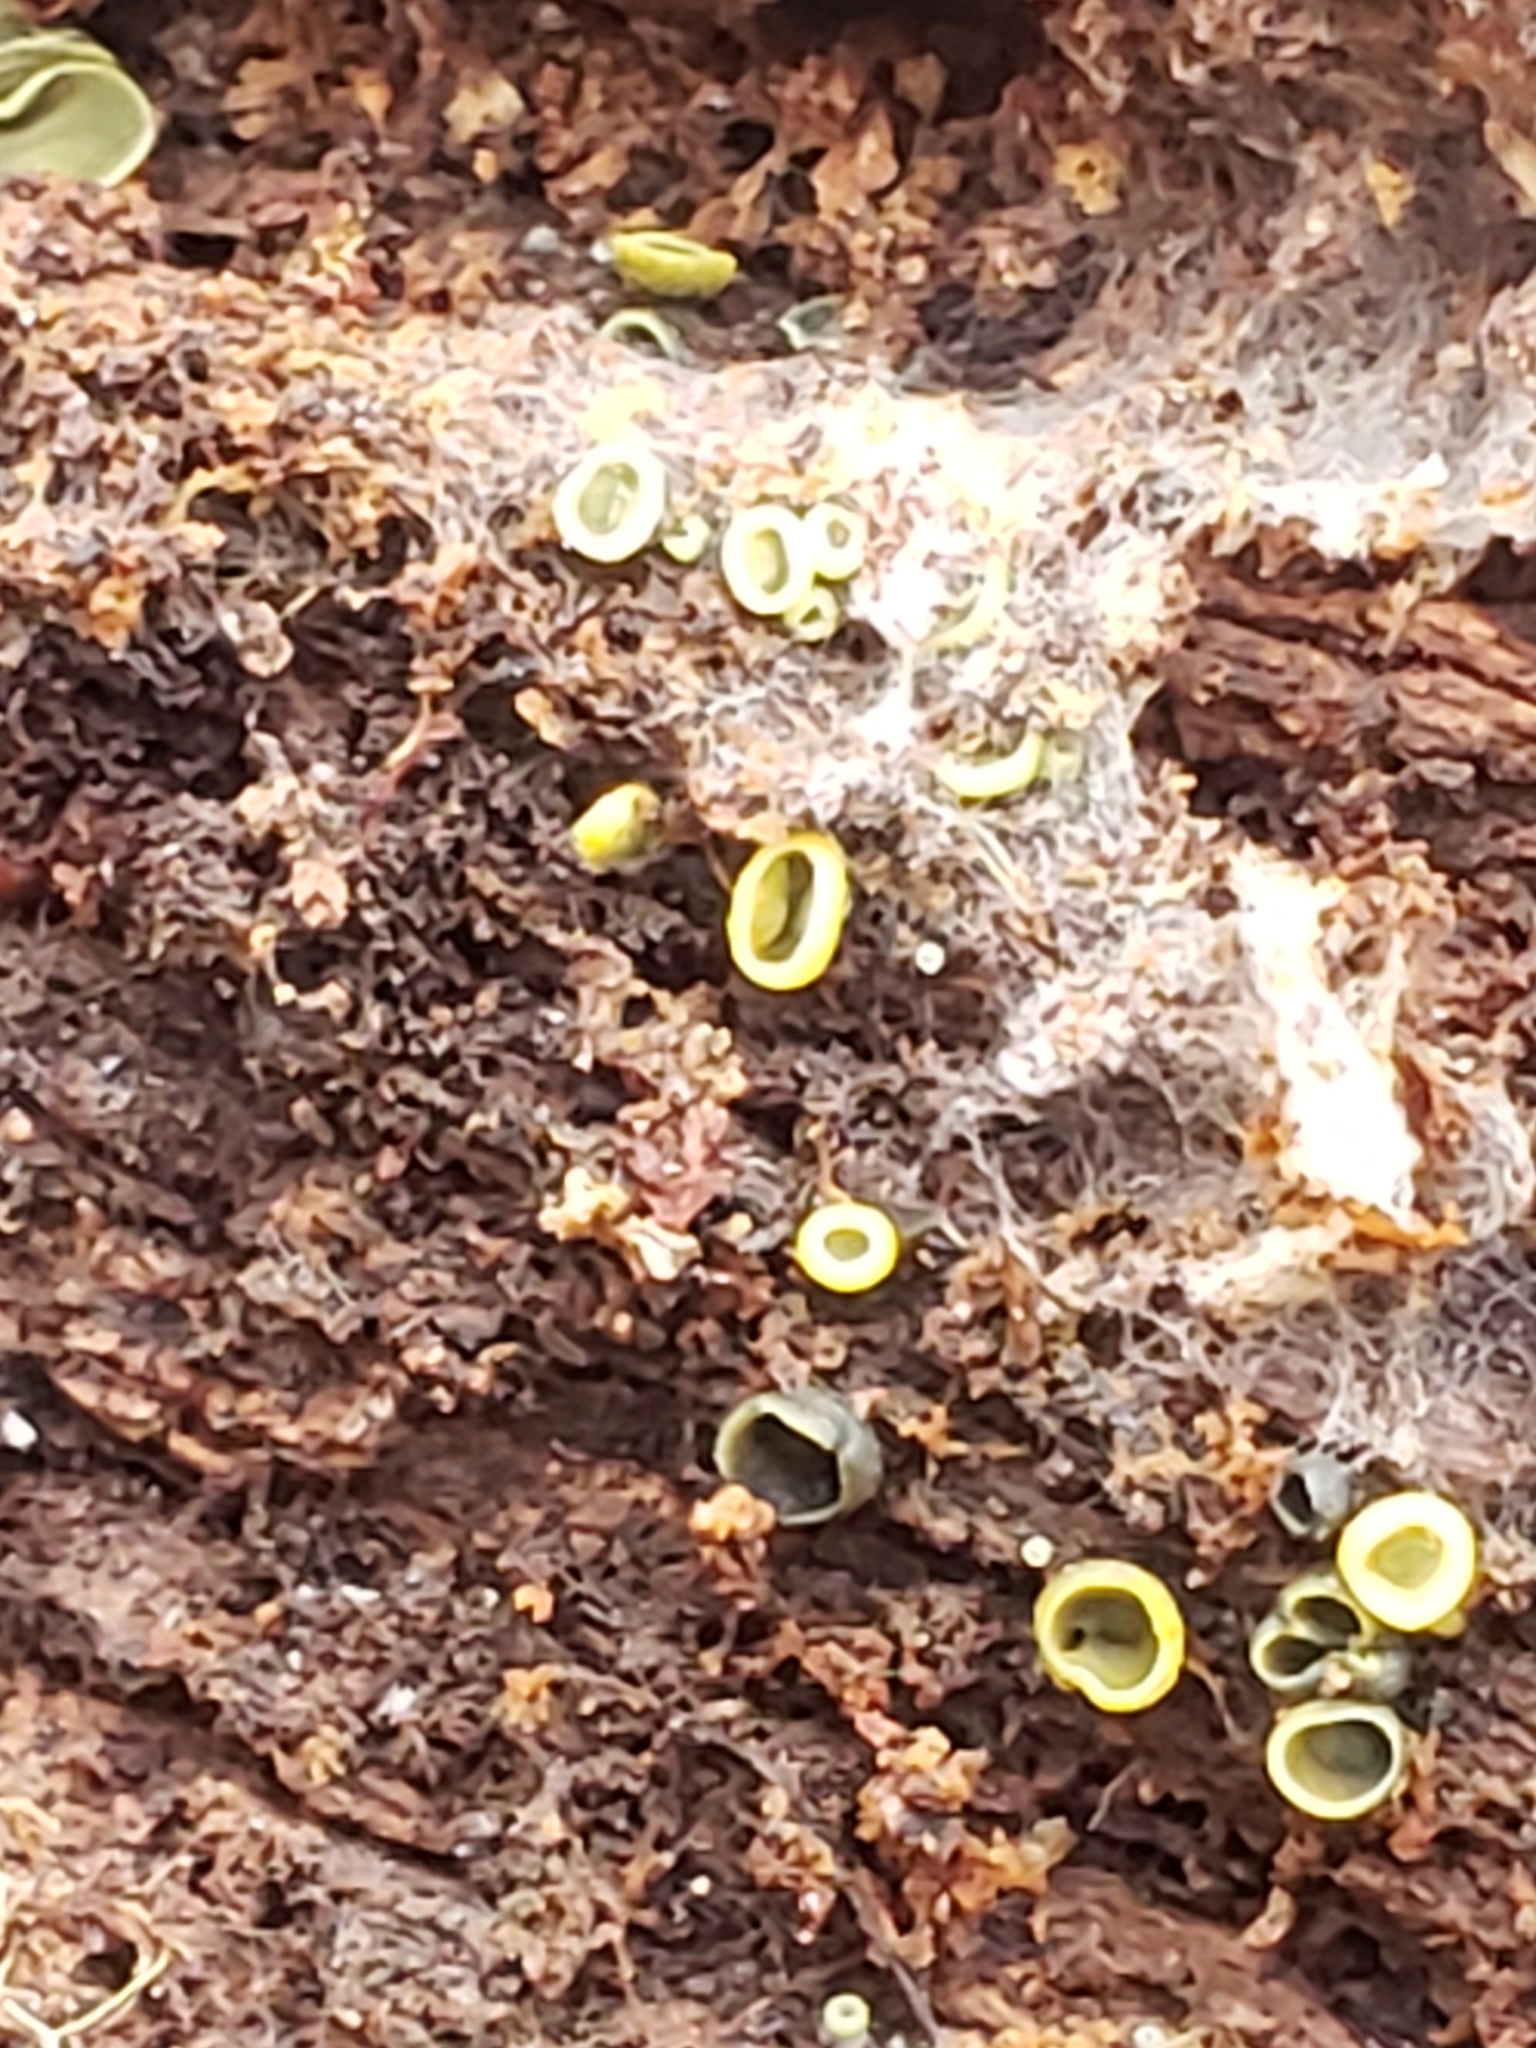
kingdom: Fungi
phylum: Ascomycota
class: Leotiomycetes
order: Helotiales
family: Chlorospleniaceae
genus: Chlorosplenium
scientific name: Chlorosplenium chlora
